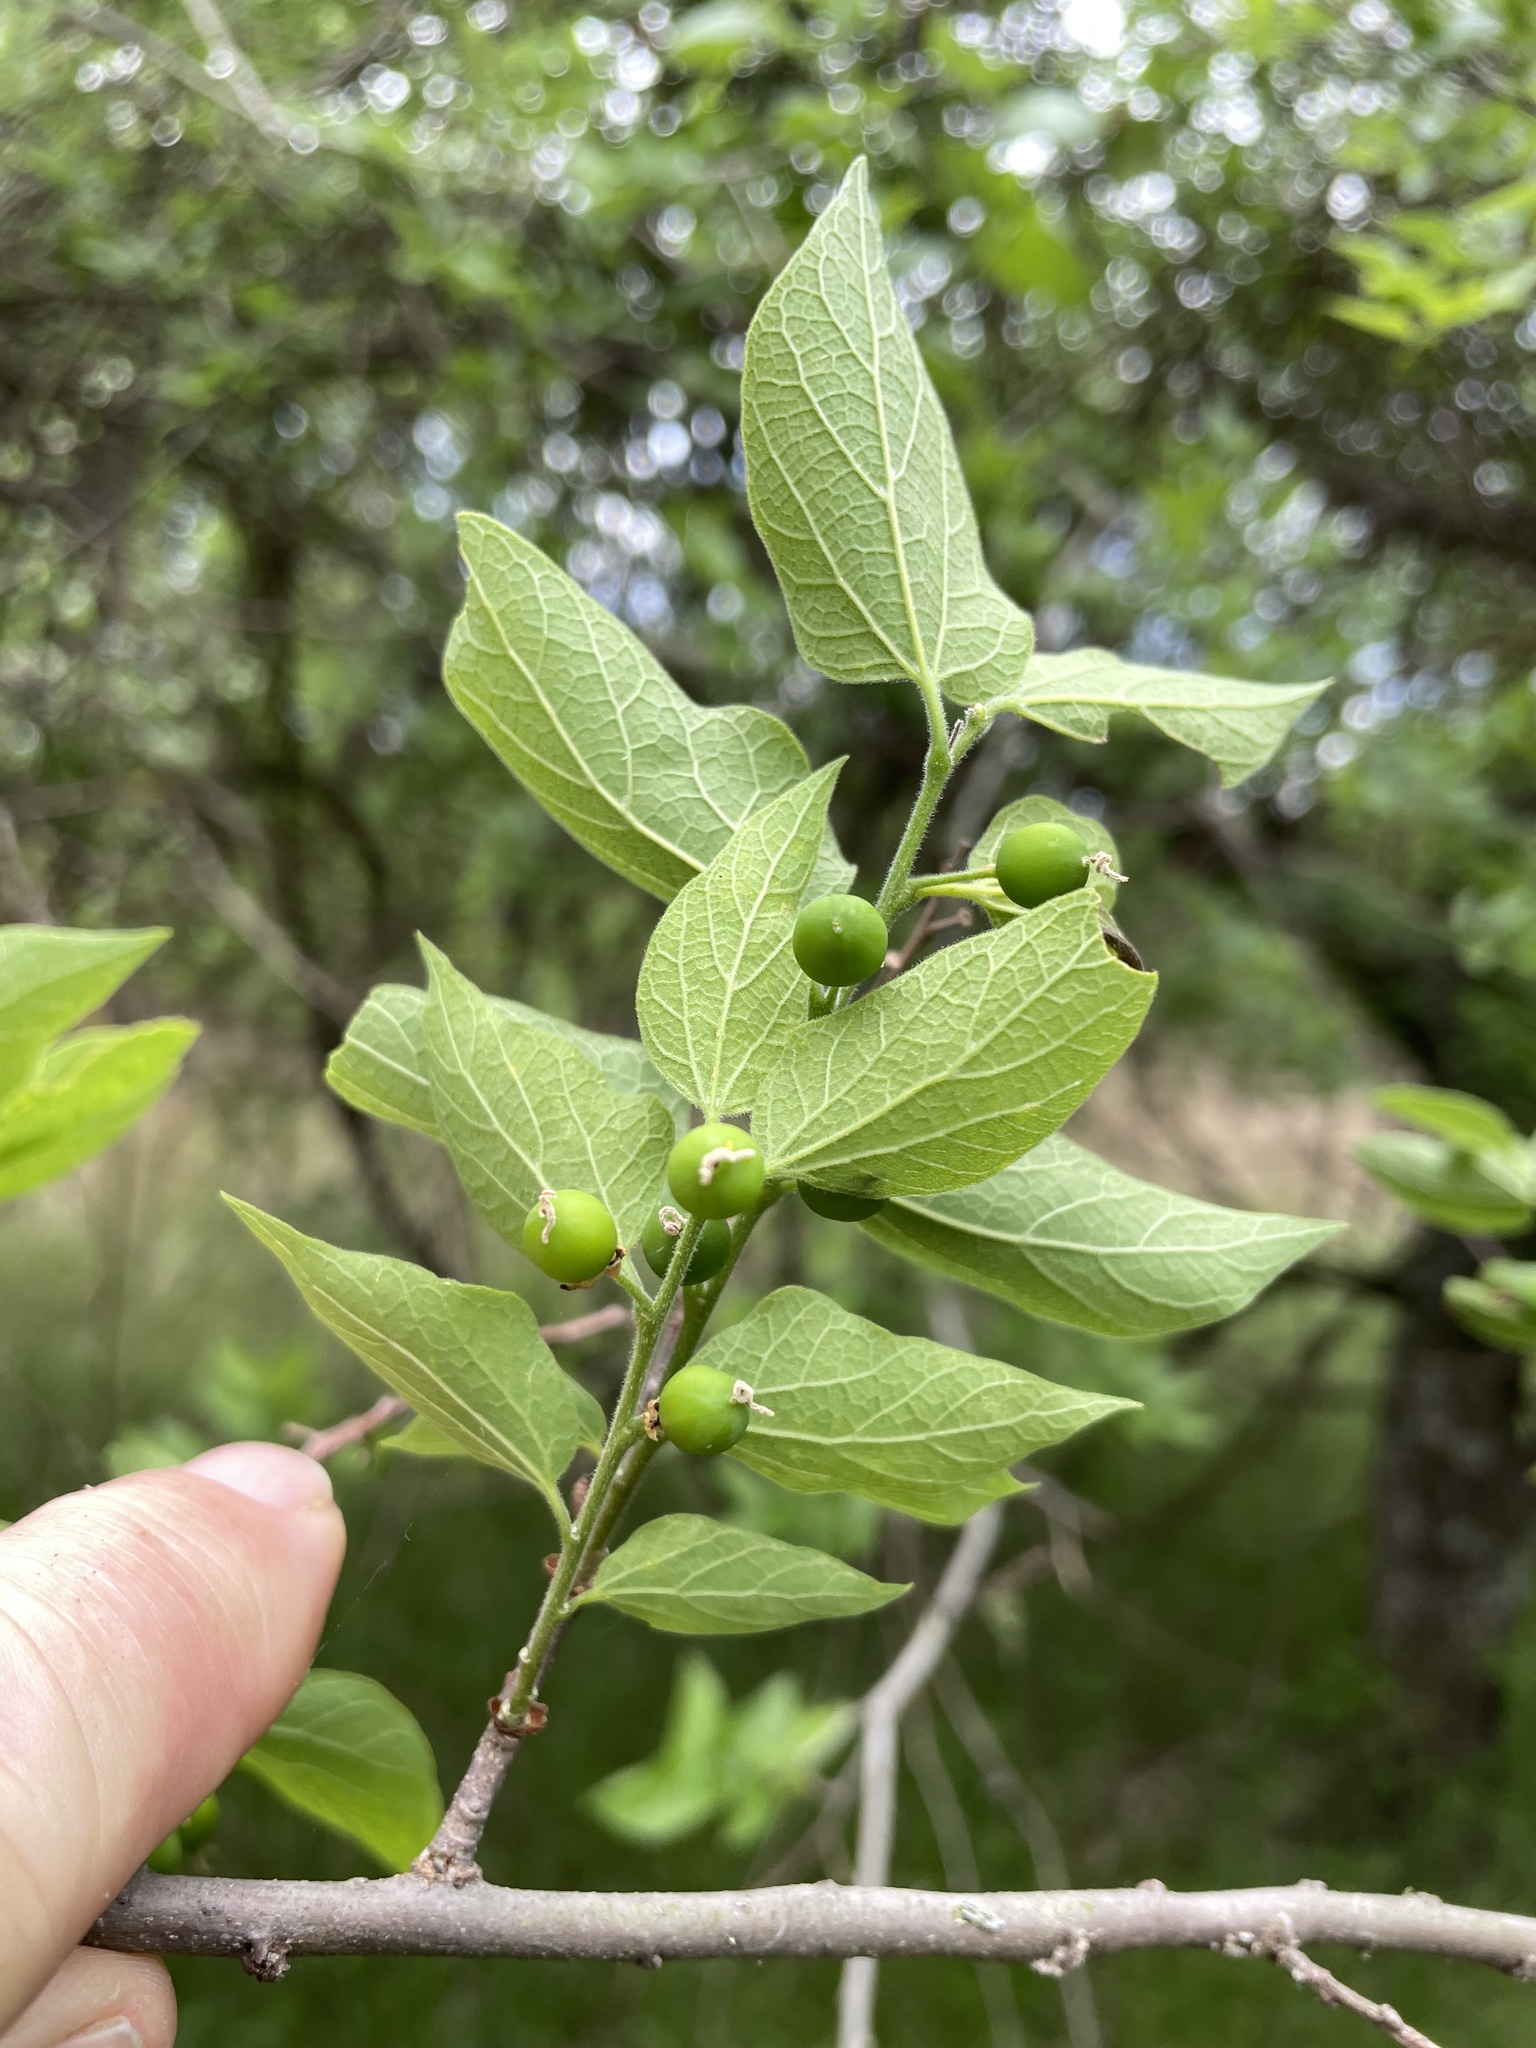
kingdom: Plantae
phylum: Tracheophyta
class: Magnoliopsida
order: Rosales
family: Cannabaceae
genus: Celtis
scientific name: Celtis reticulata
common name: Netleaf hackberry
